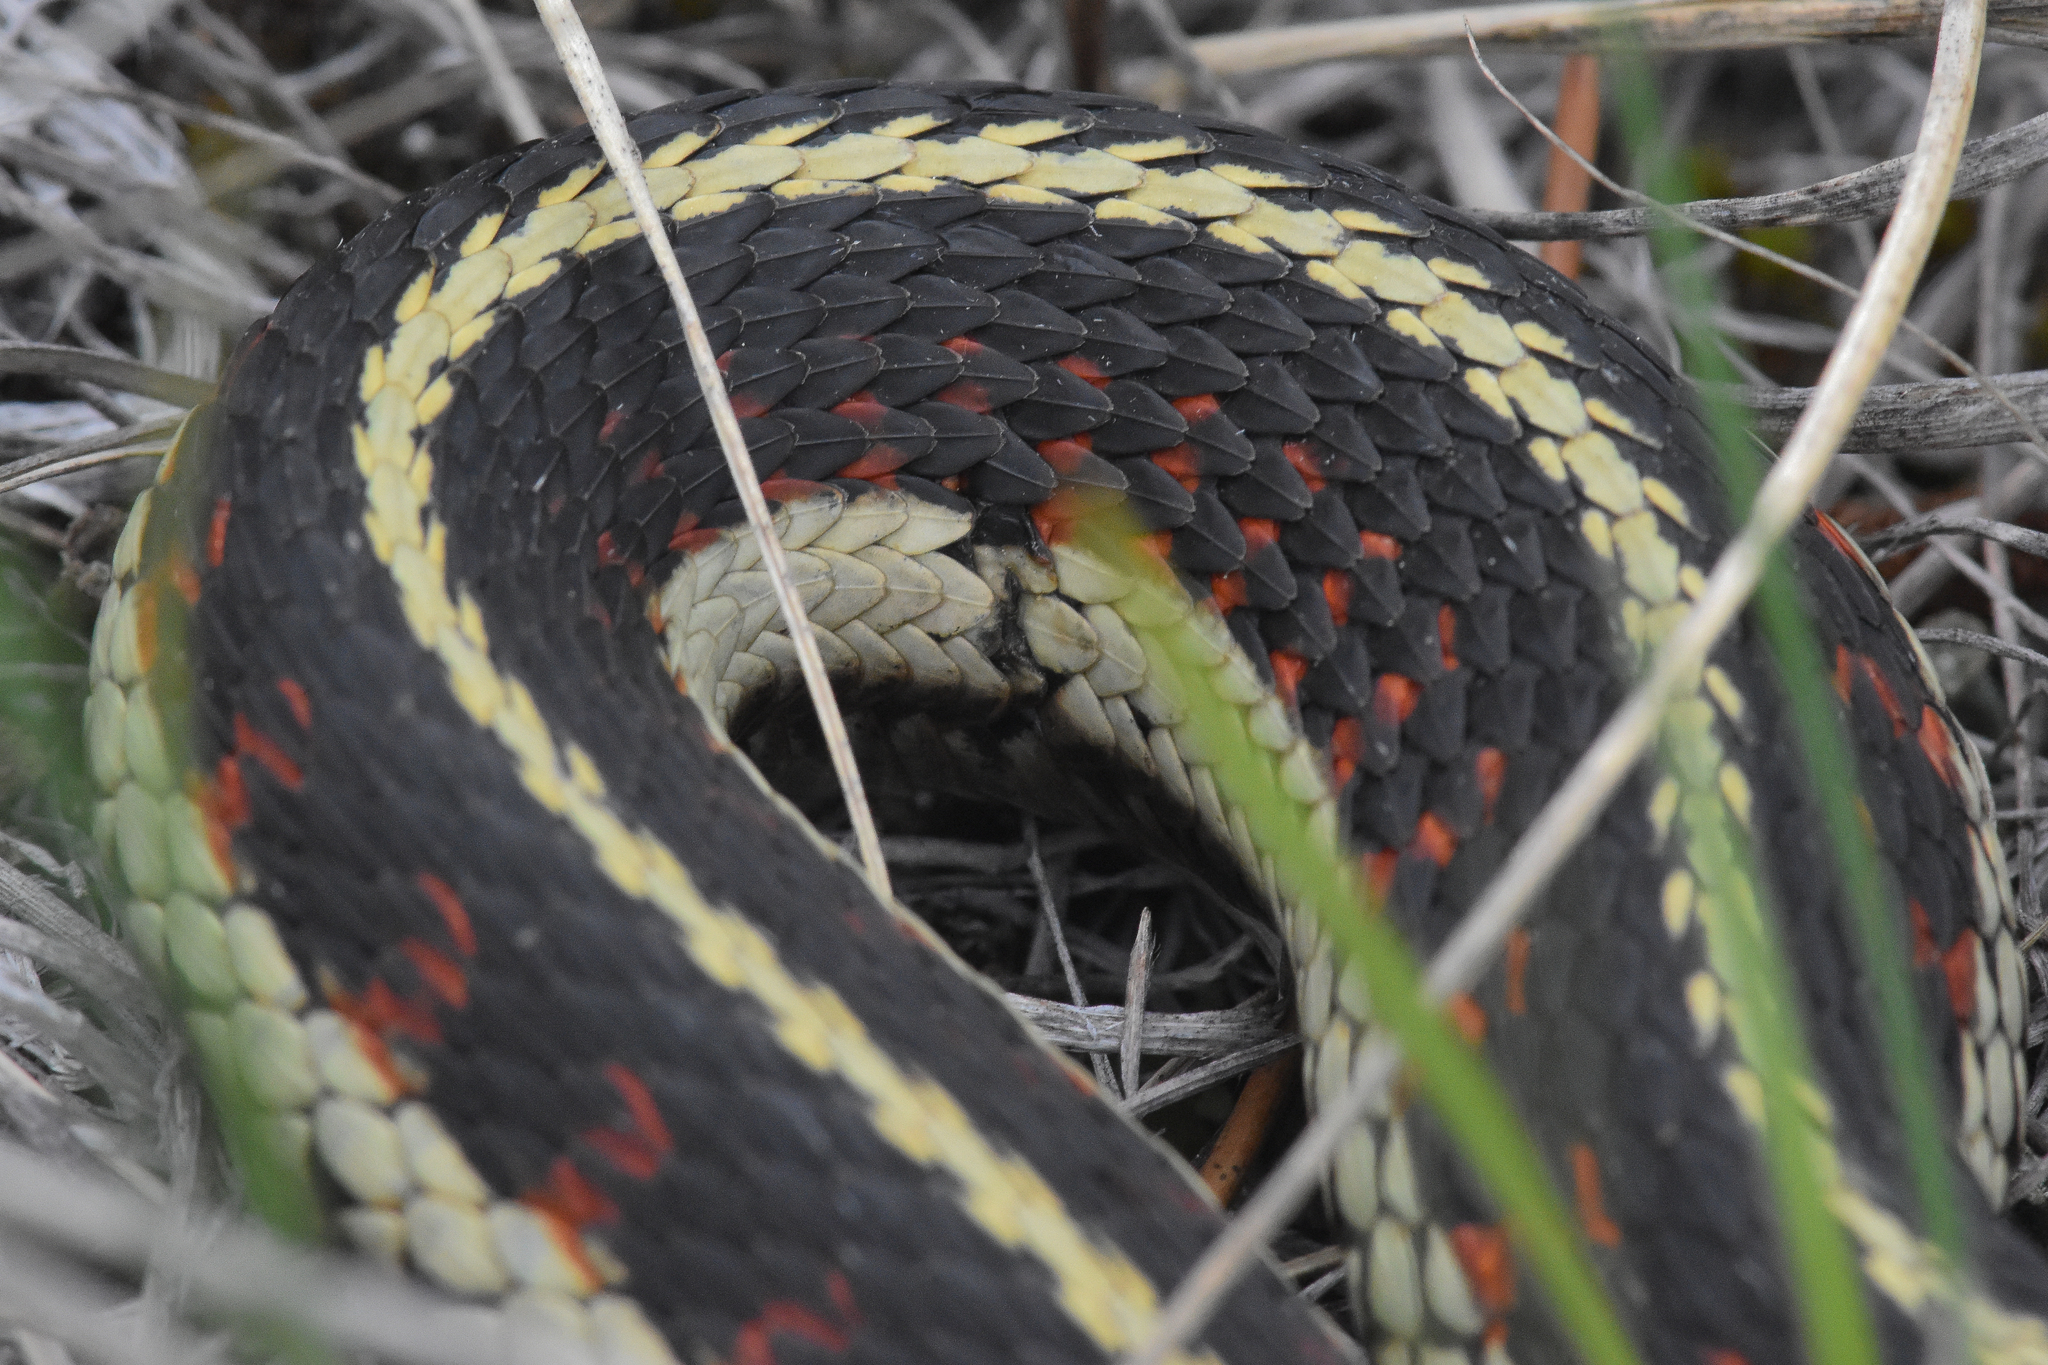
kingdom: Animalia
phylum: Chordata
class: Squamata
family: Colubridae
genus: Thamnophis
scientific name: Thamnophis sirtalis
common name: Common garter snake
